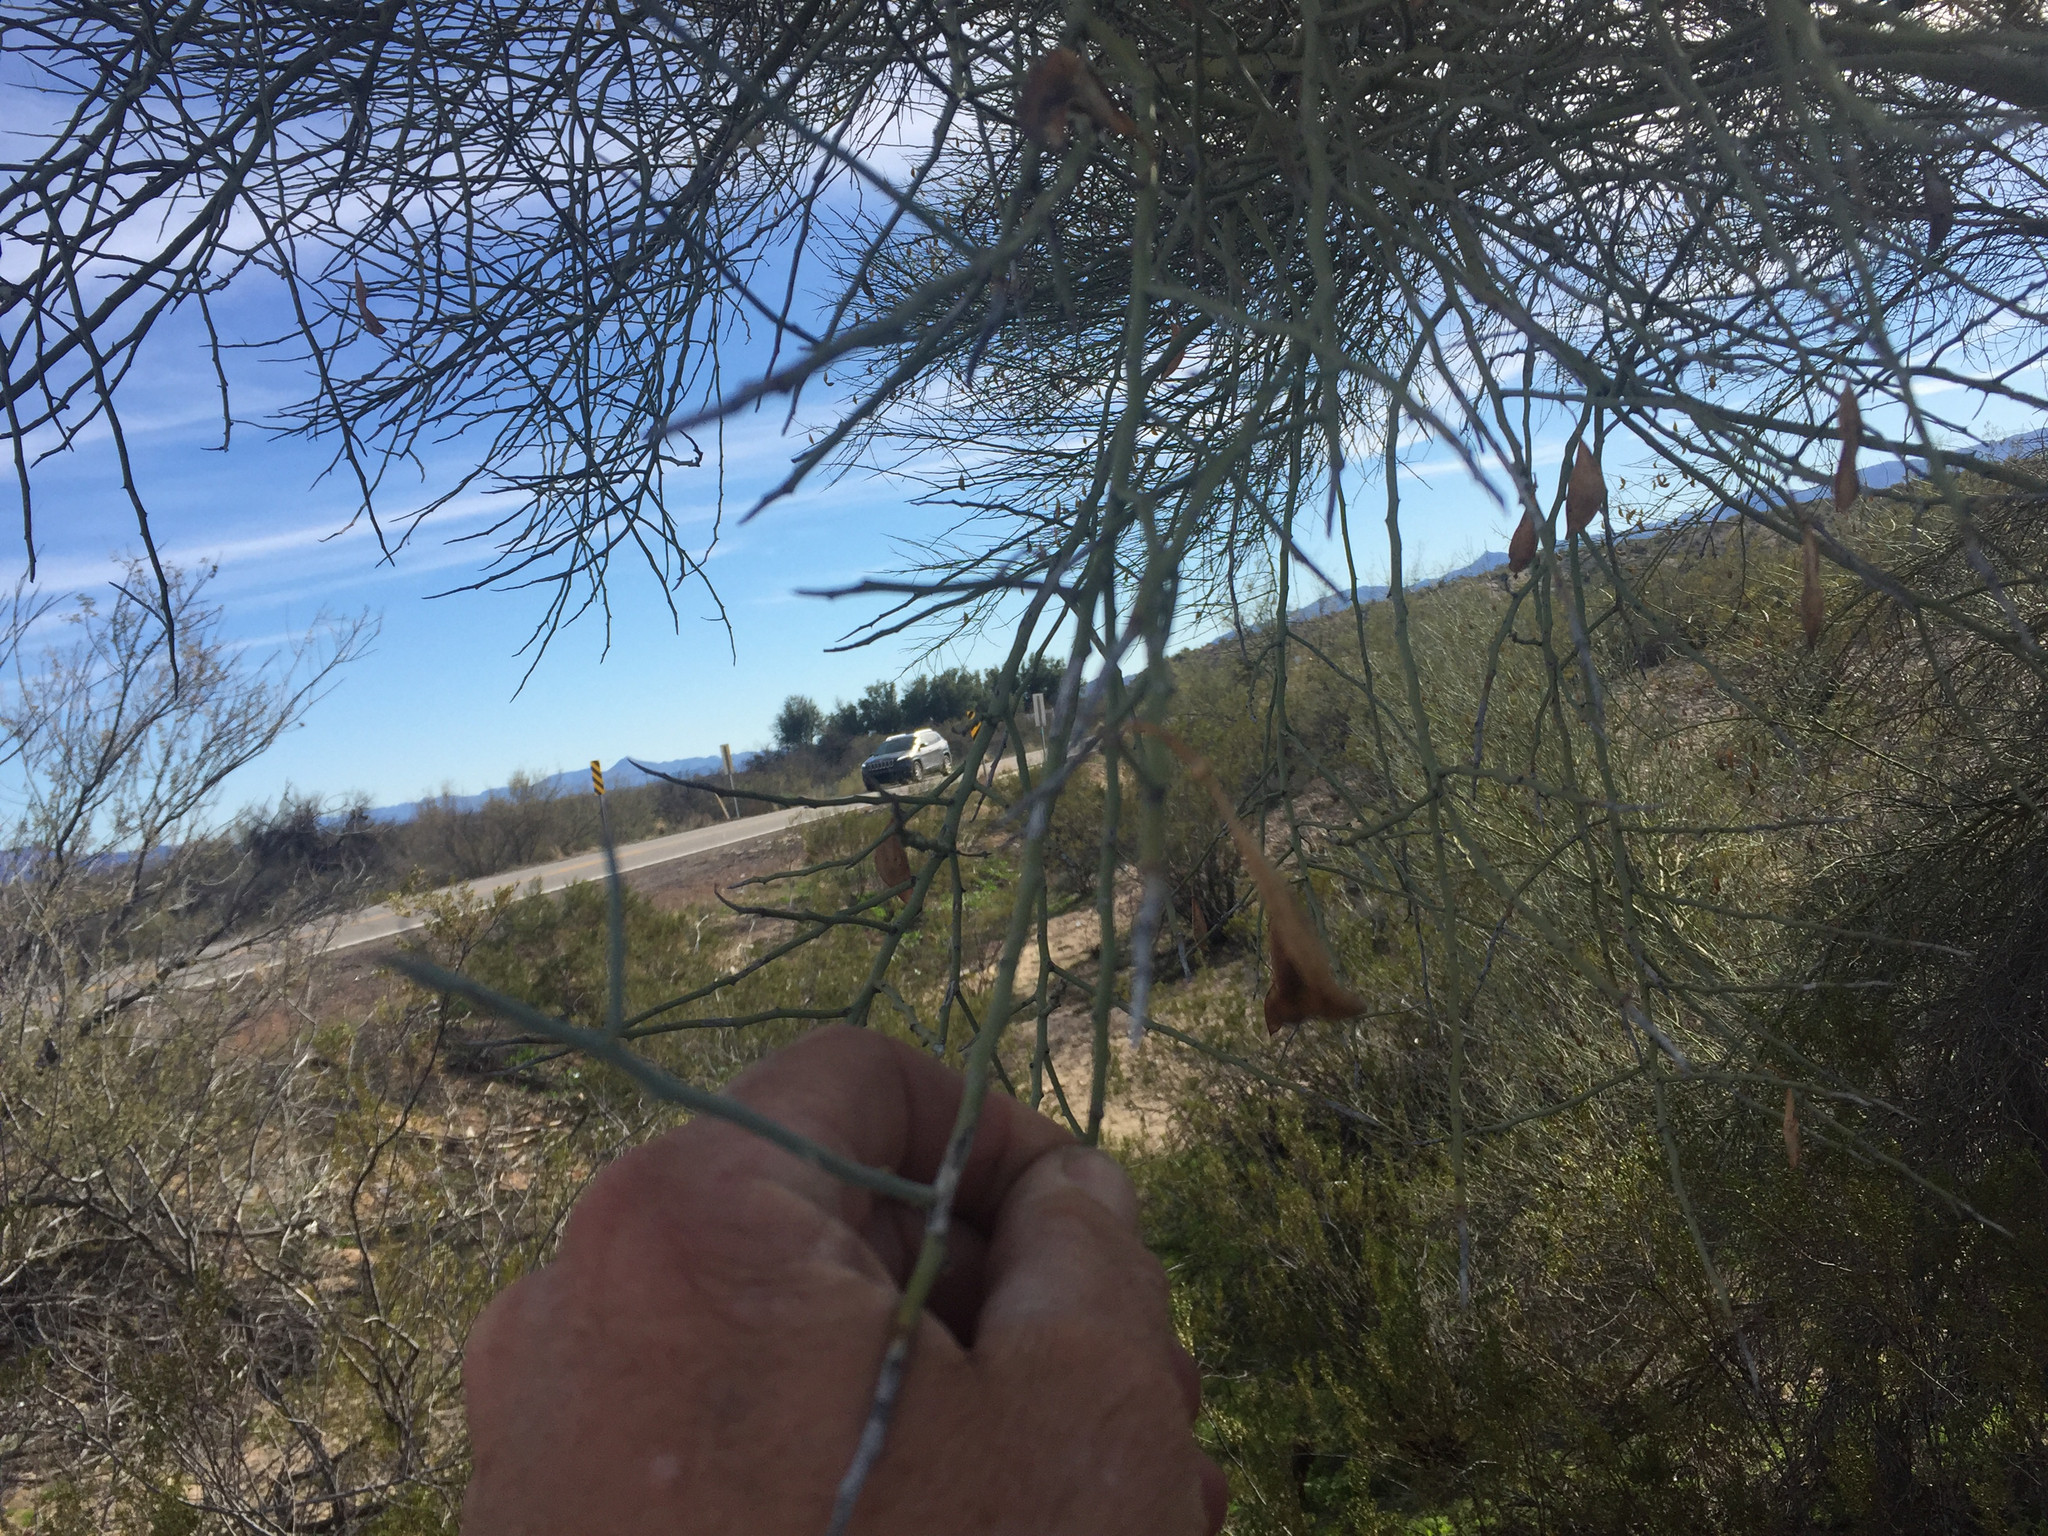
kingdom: Plantae
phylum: Tracheophyta
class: Magnoliopsida
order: Fabales
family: Fabaceae
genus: Parkinsonia
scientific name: Parkinsonia florida
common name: Blue paloverde
